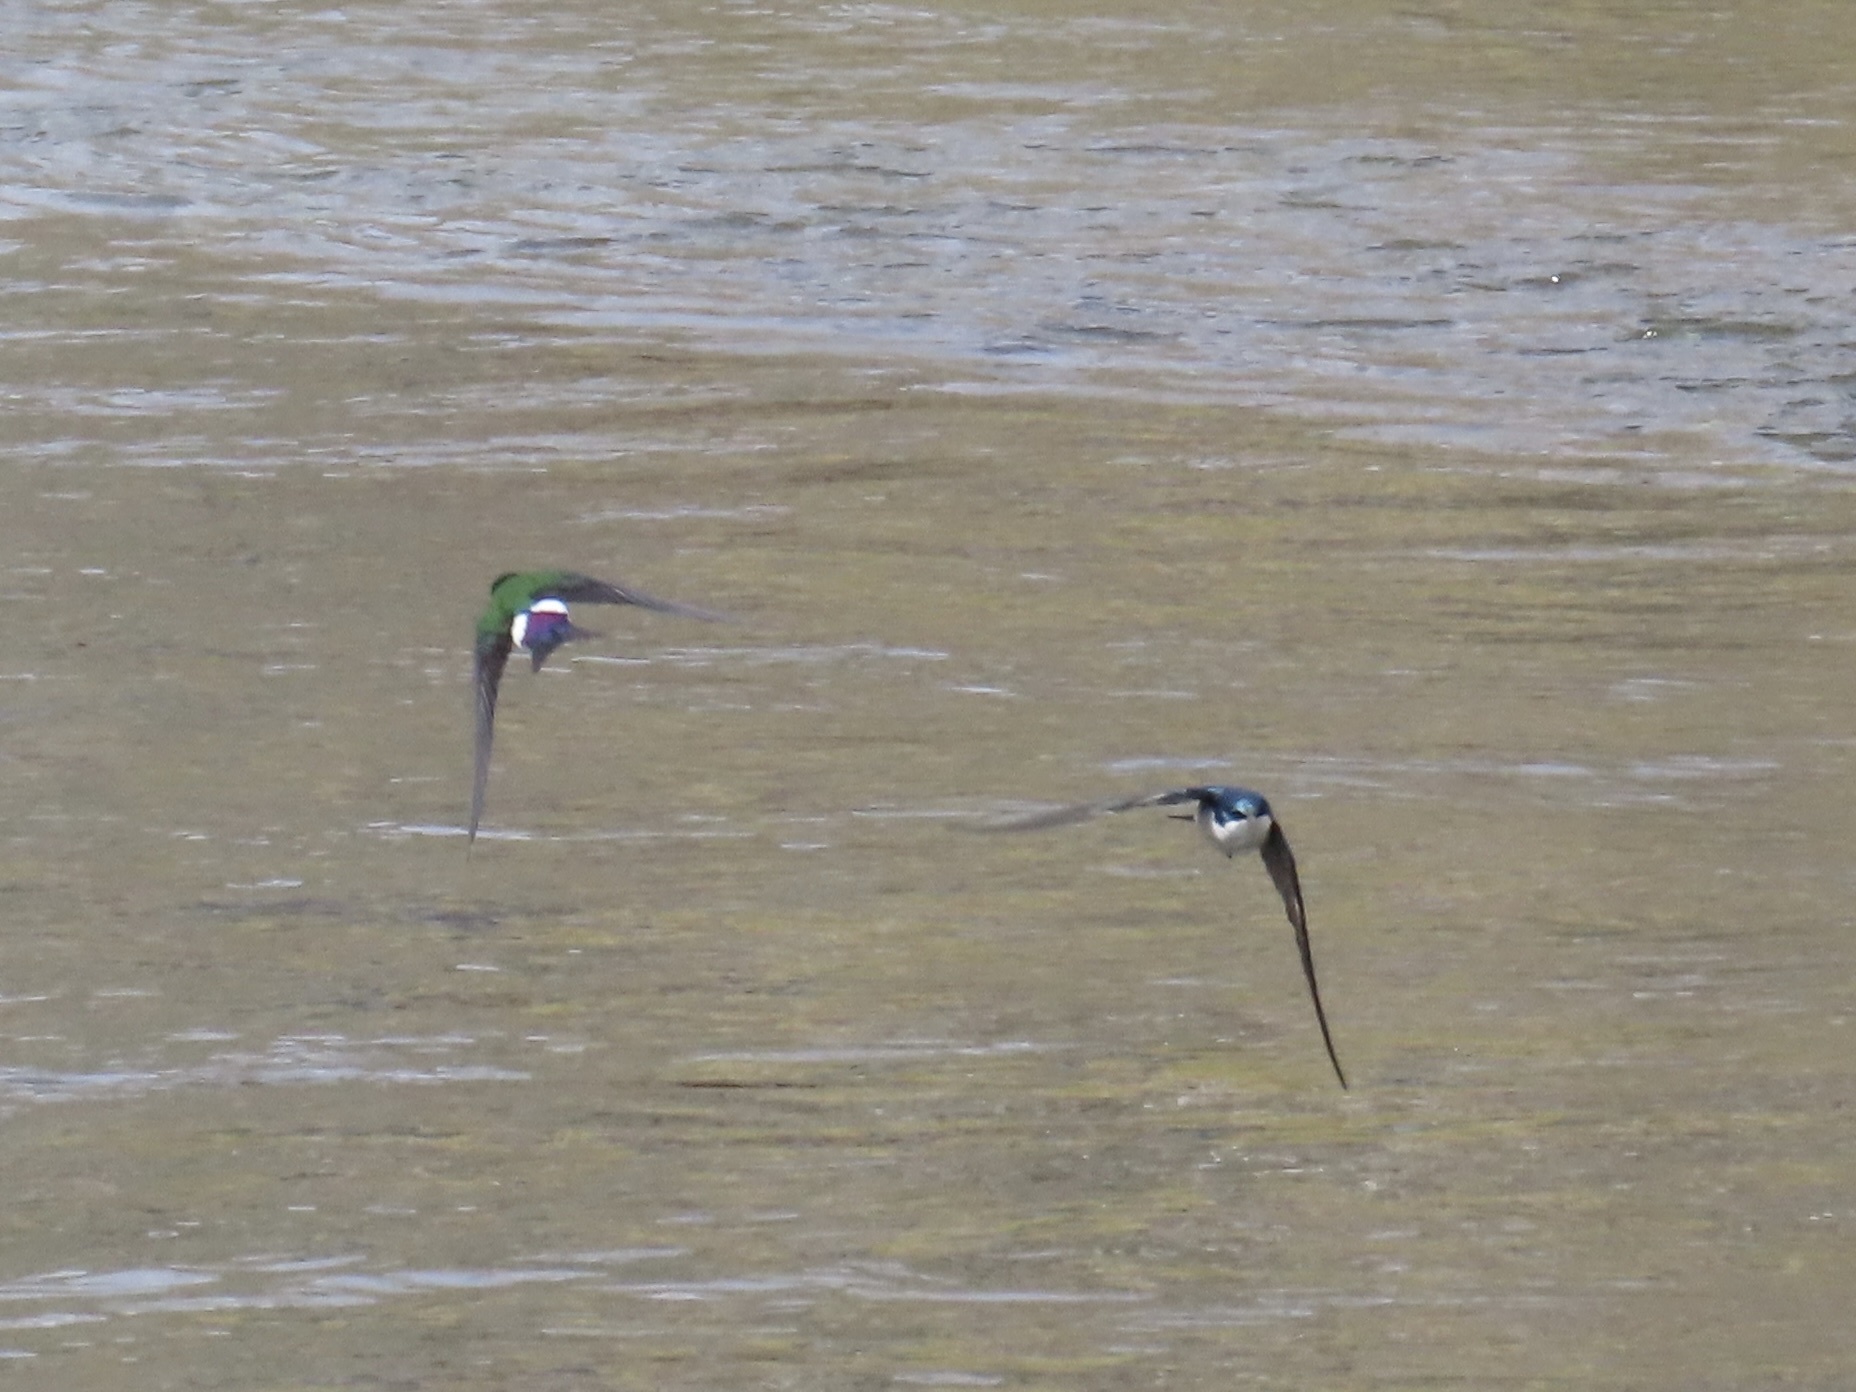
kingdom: Animalia
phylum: Chordata
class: Aves
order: Passeriformes
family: Hirundinidae
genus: Tachycineta
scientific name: Tachycineta thalassina
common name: Violet-green swallow
